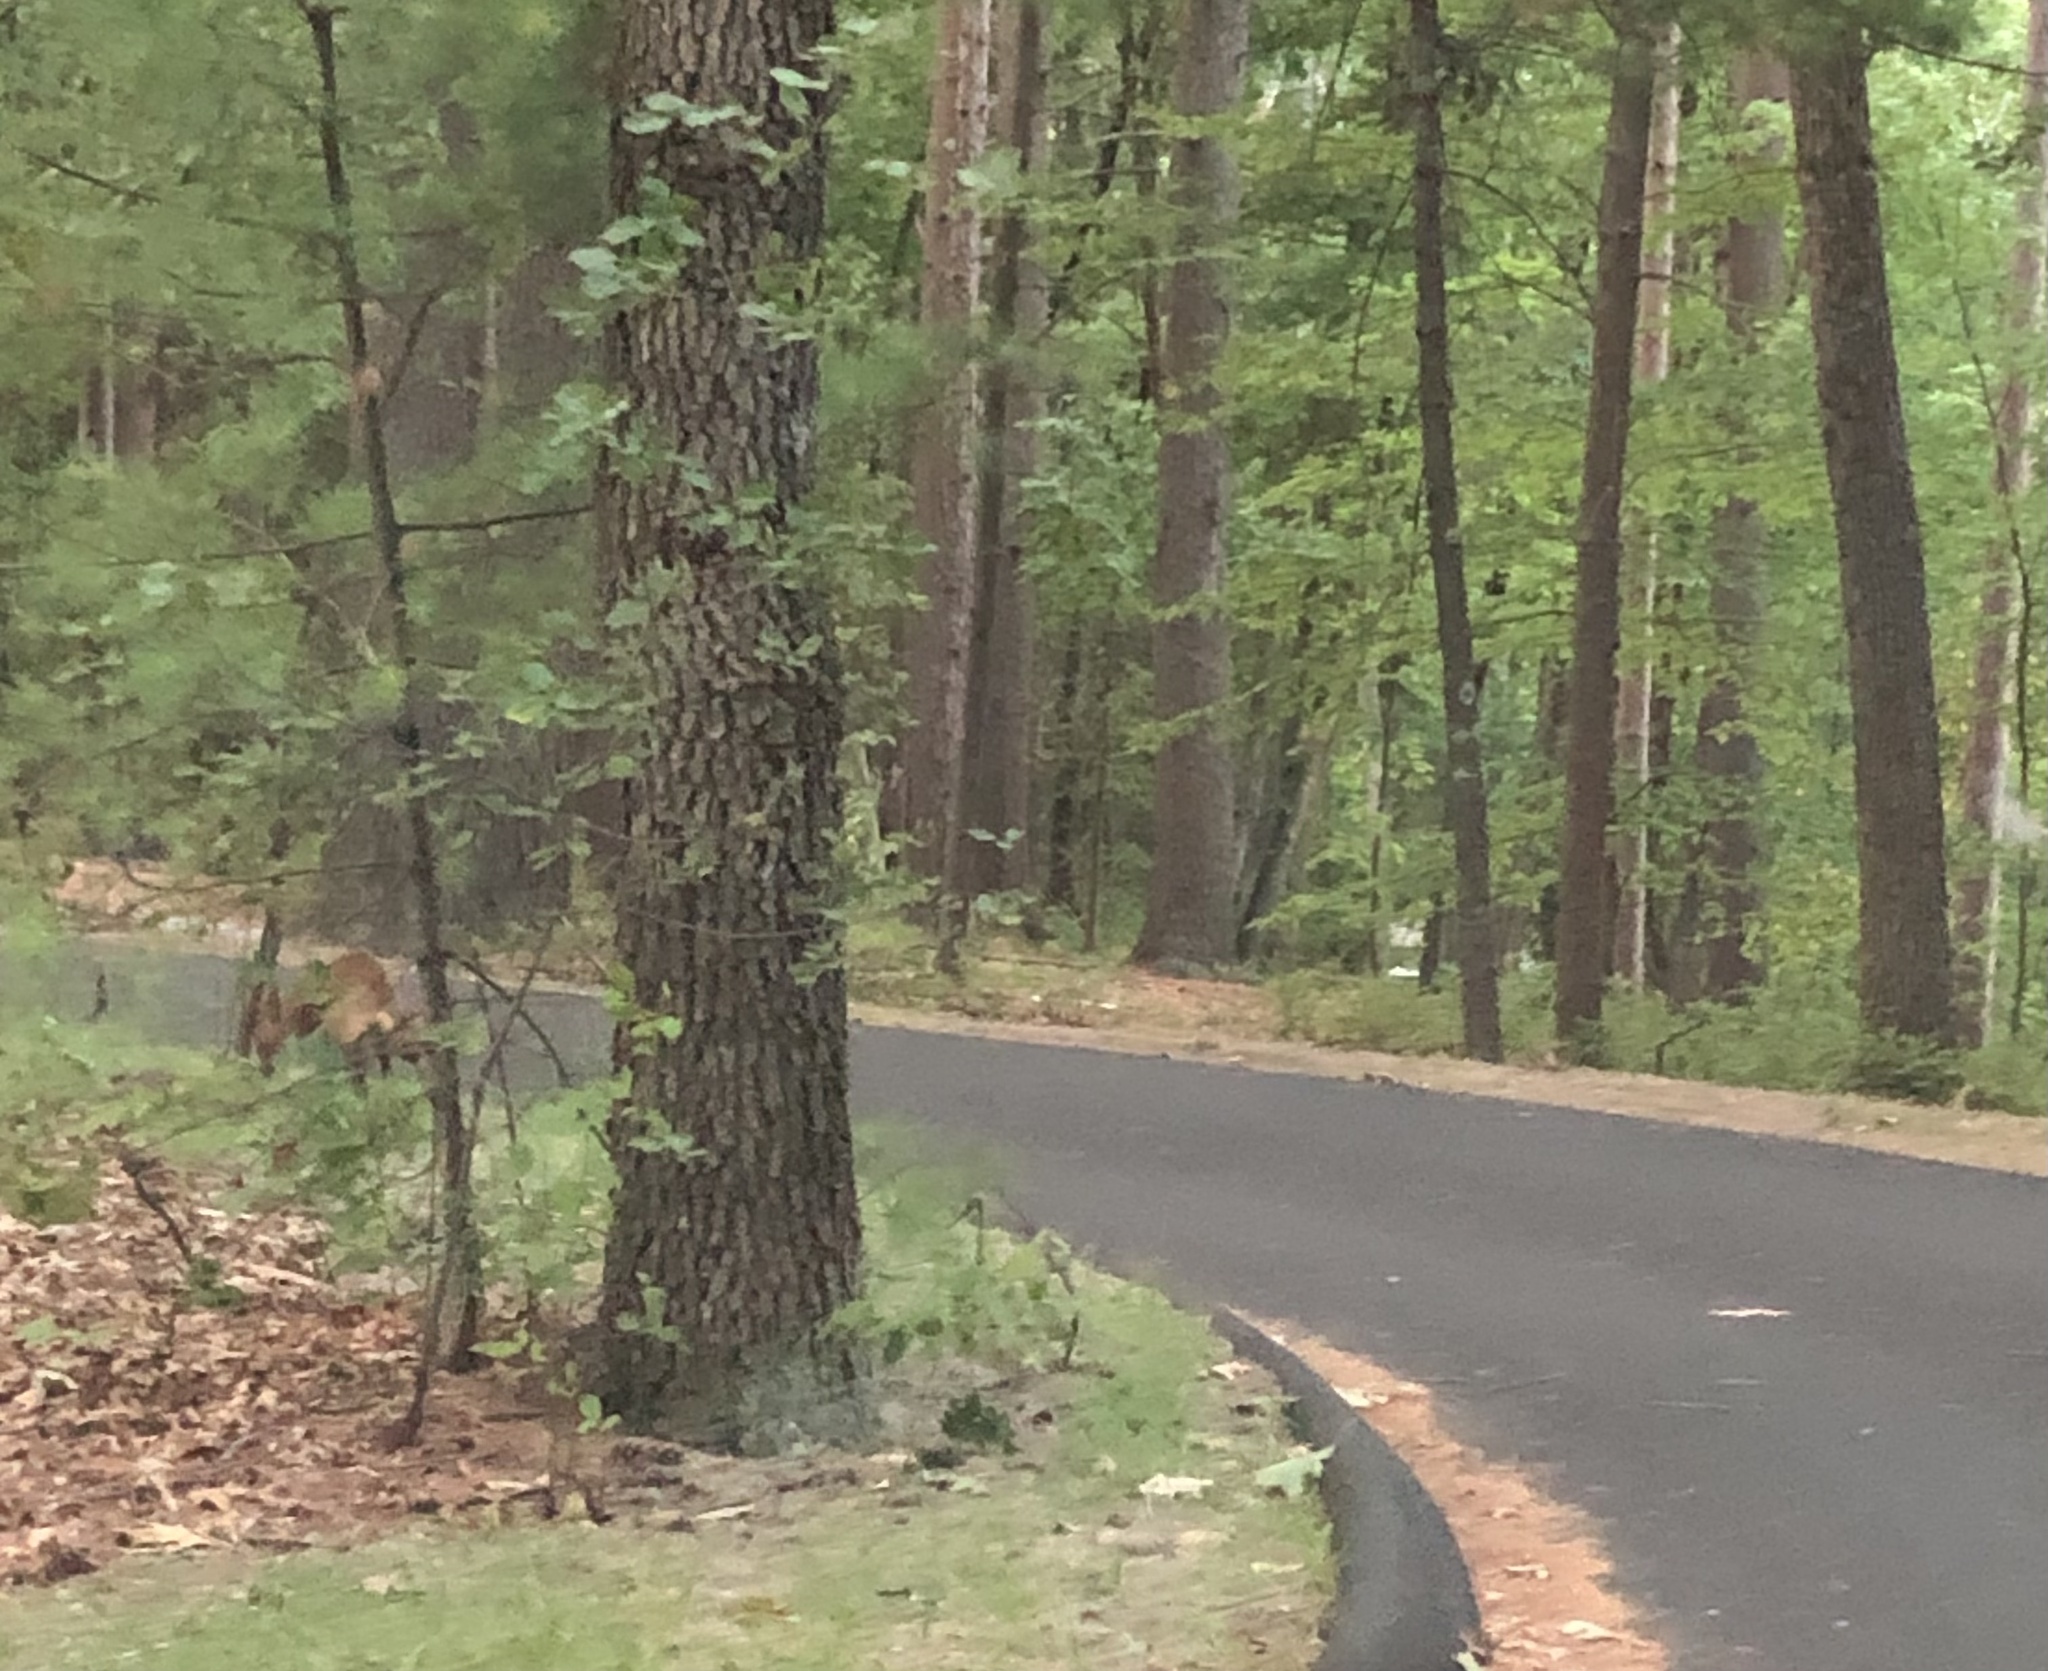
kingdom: Animalia
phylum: Chordata
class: Mammalia
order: Carnivora
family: Canidae
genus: Vulpes
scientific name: Vulpes vulpes
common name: Red fox
